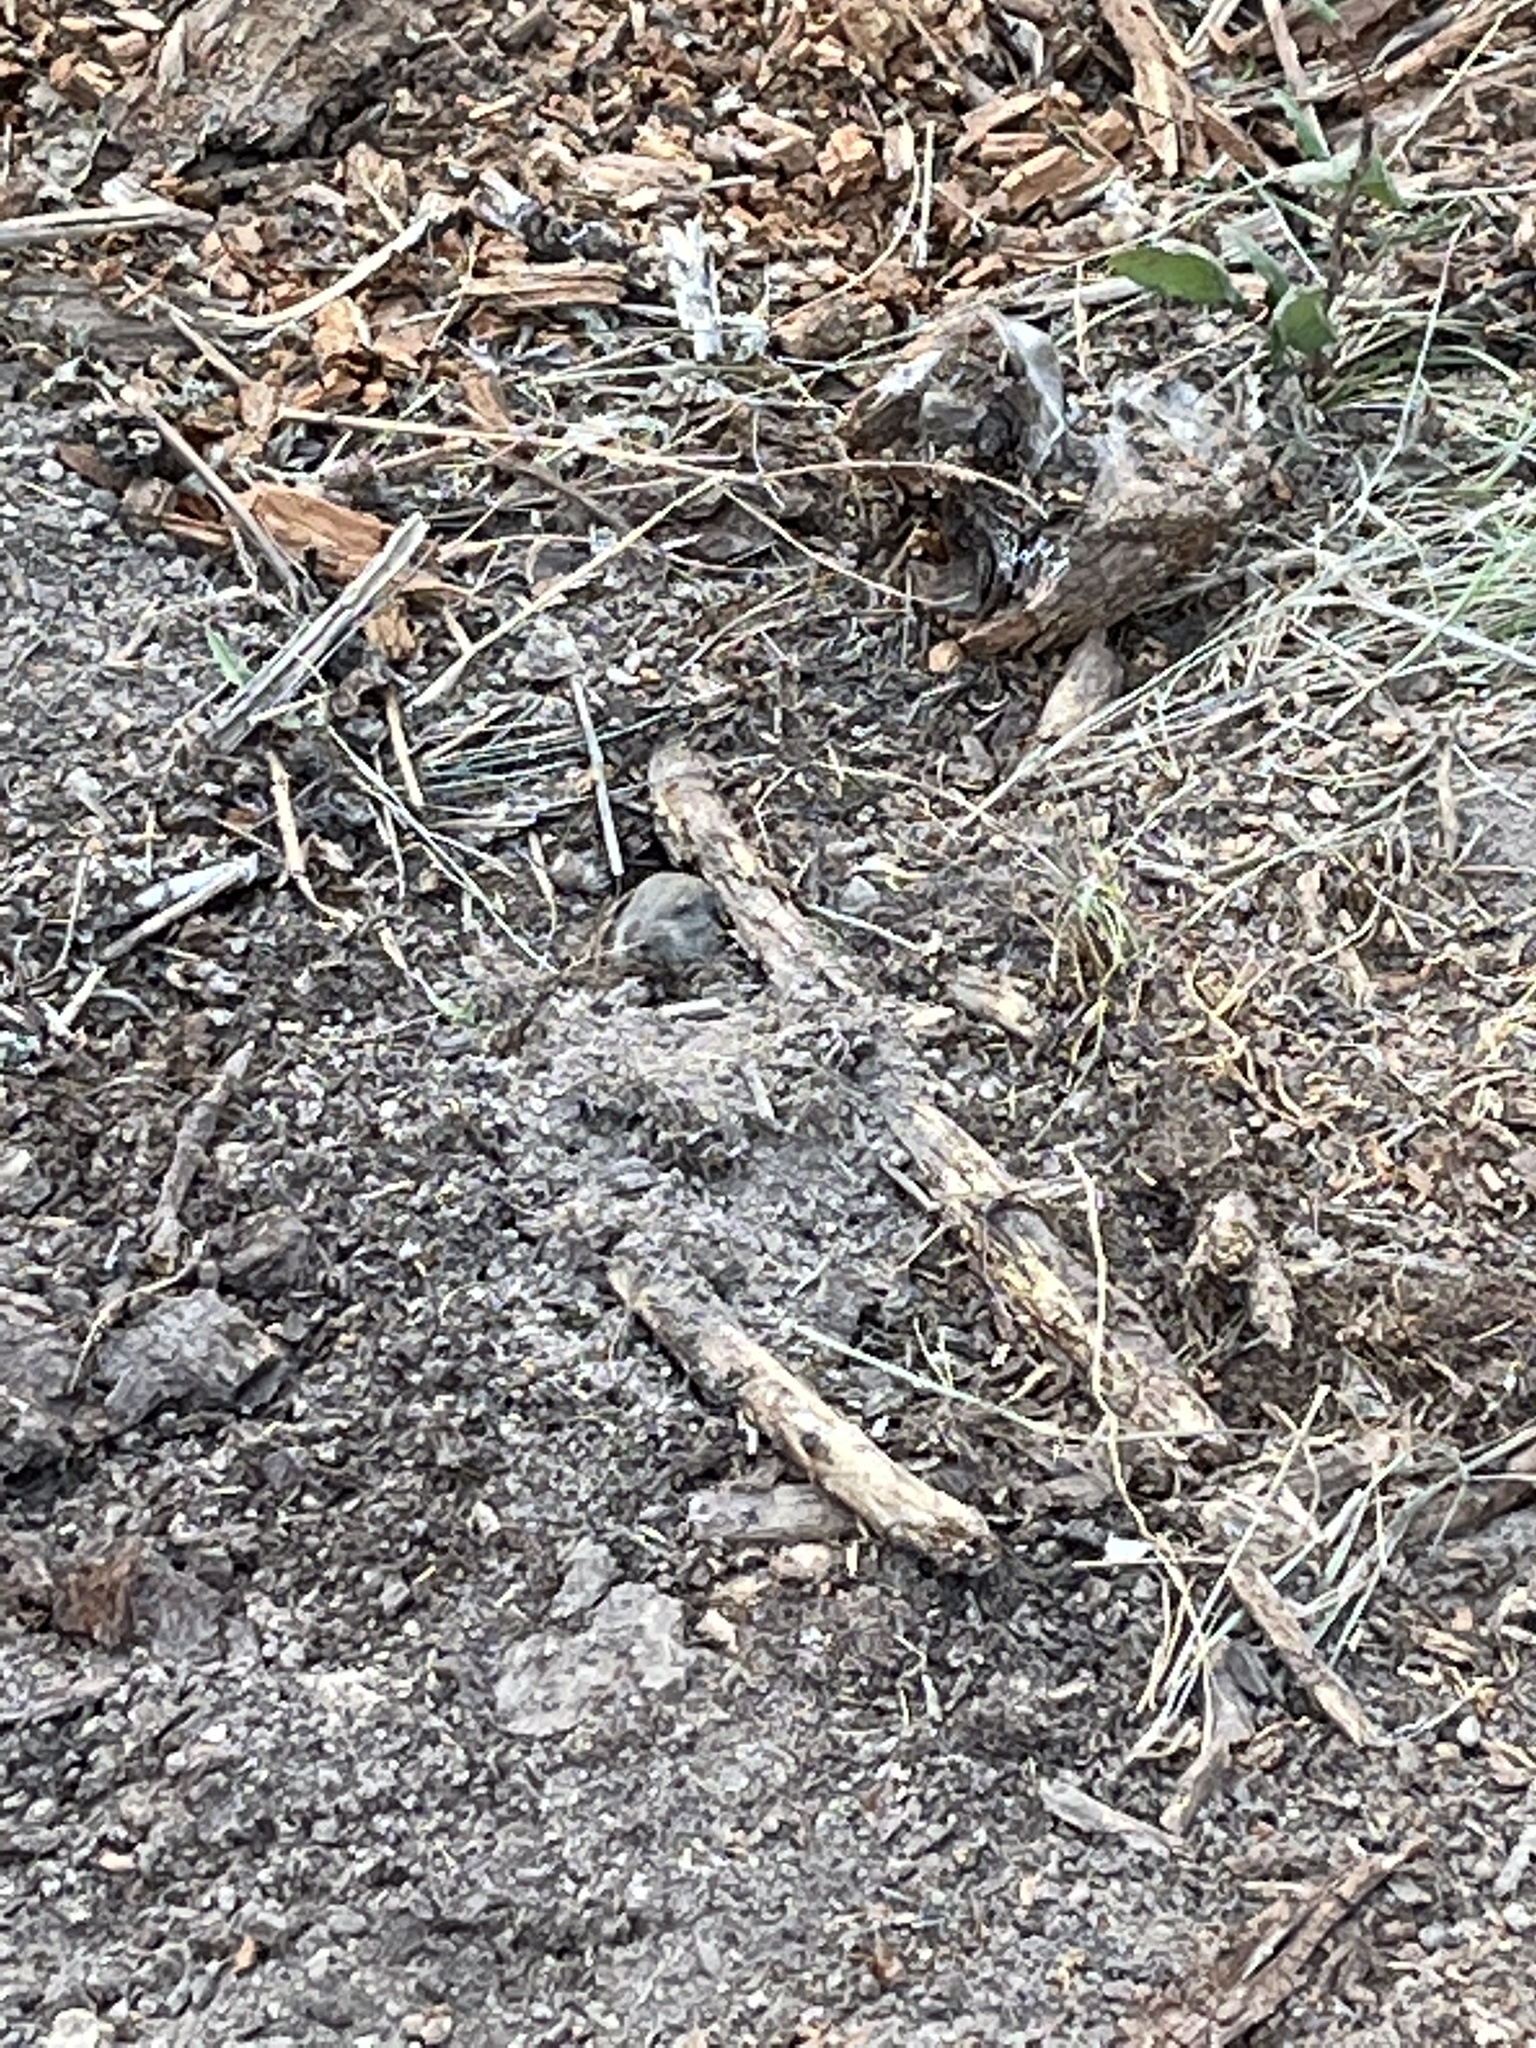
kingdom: Animalia
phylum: Chordata
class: Mammalia
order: Rodentia
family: Geomyidae
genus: Thomomys
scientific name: Thomomys talpoides
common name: Northern pocket gopher
